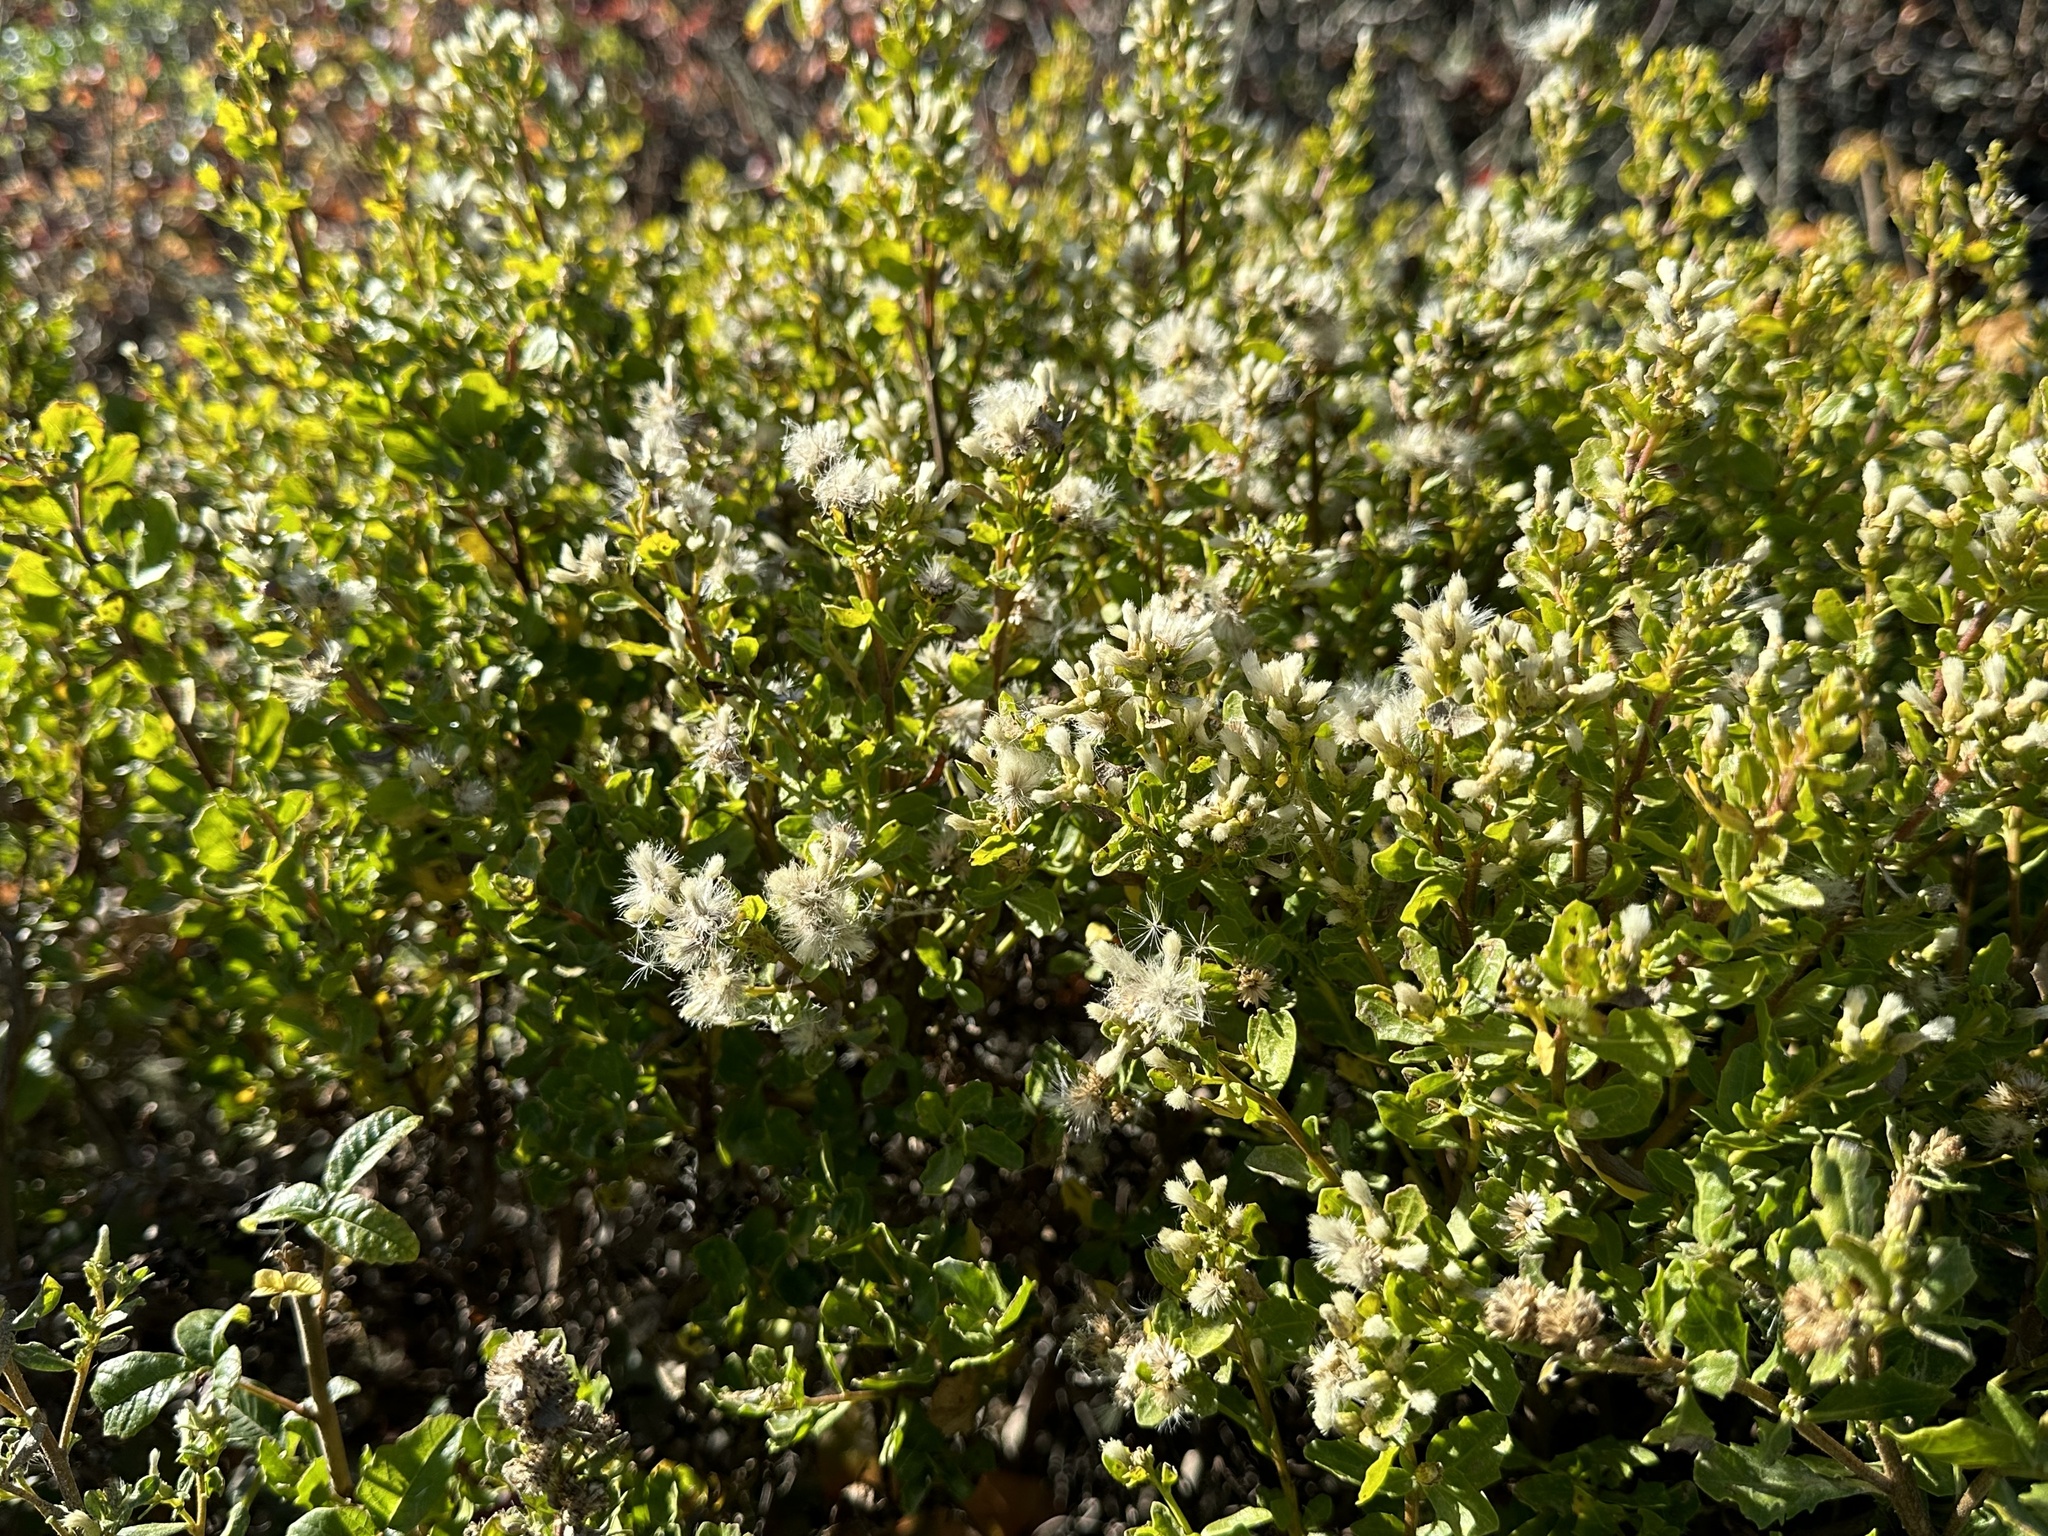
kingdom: Plantae
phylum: Tracheophyta
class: Magnoliopsida
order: Asterales
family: Asteraceae
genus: Baccharis
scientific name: Baccharis pilularis
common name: Coyotebrush
